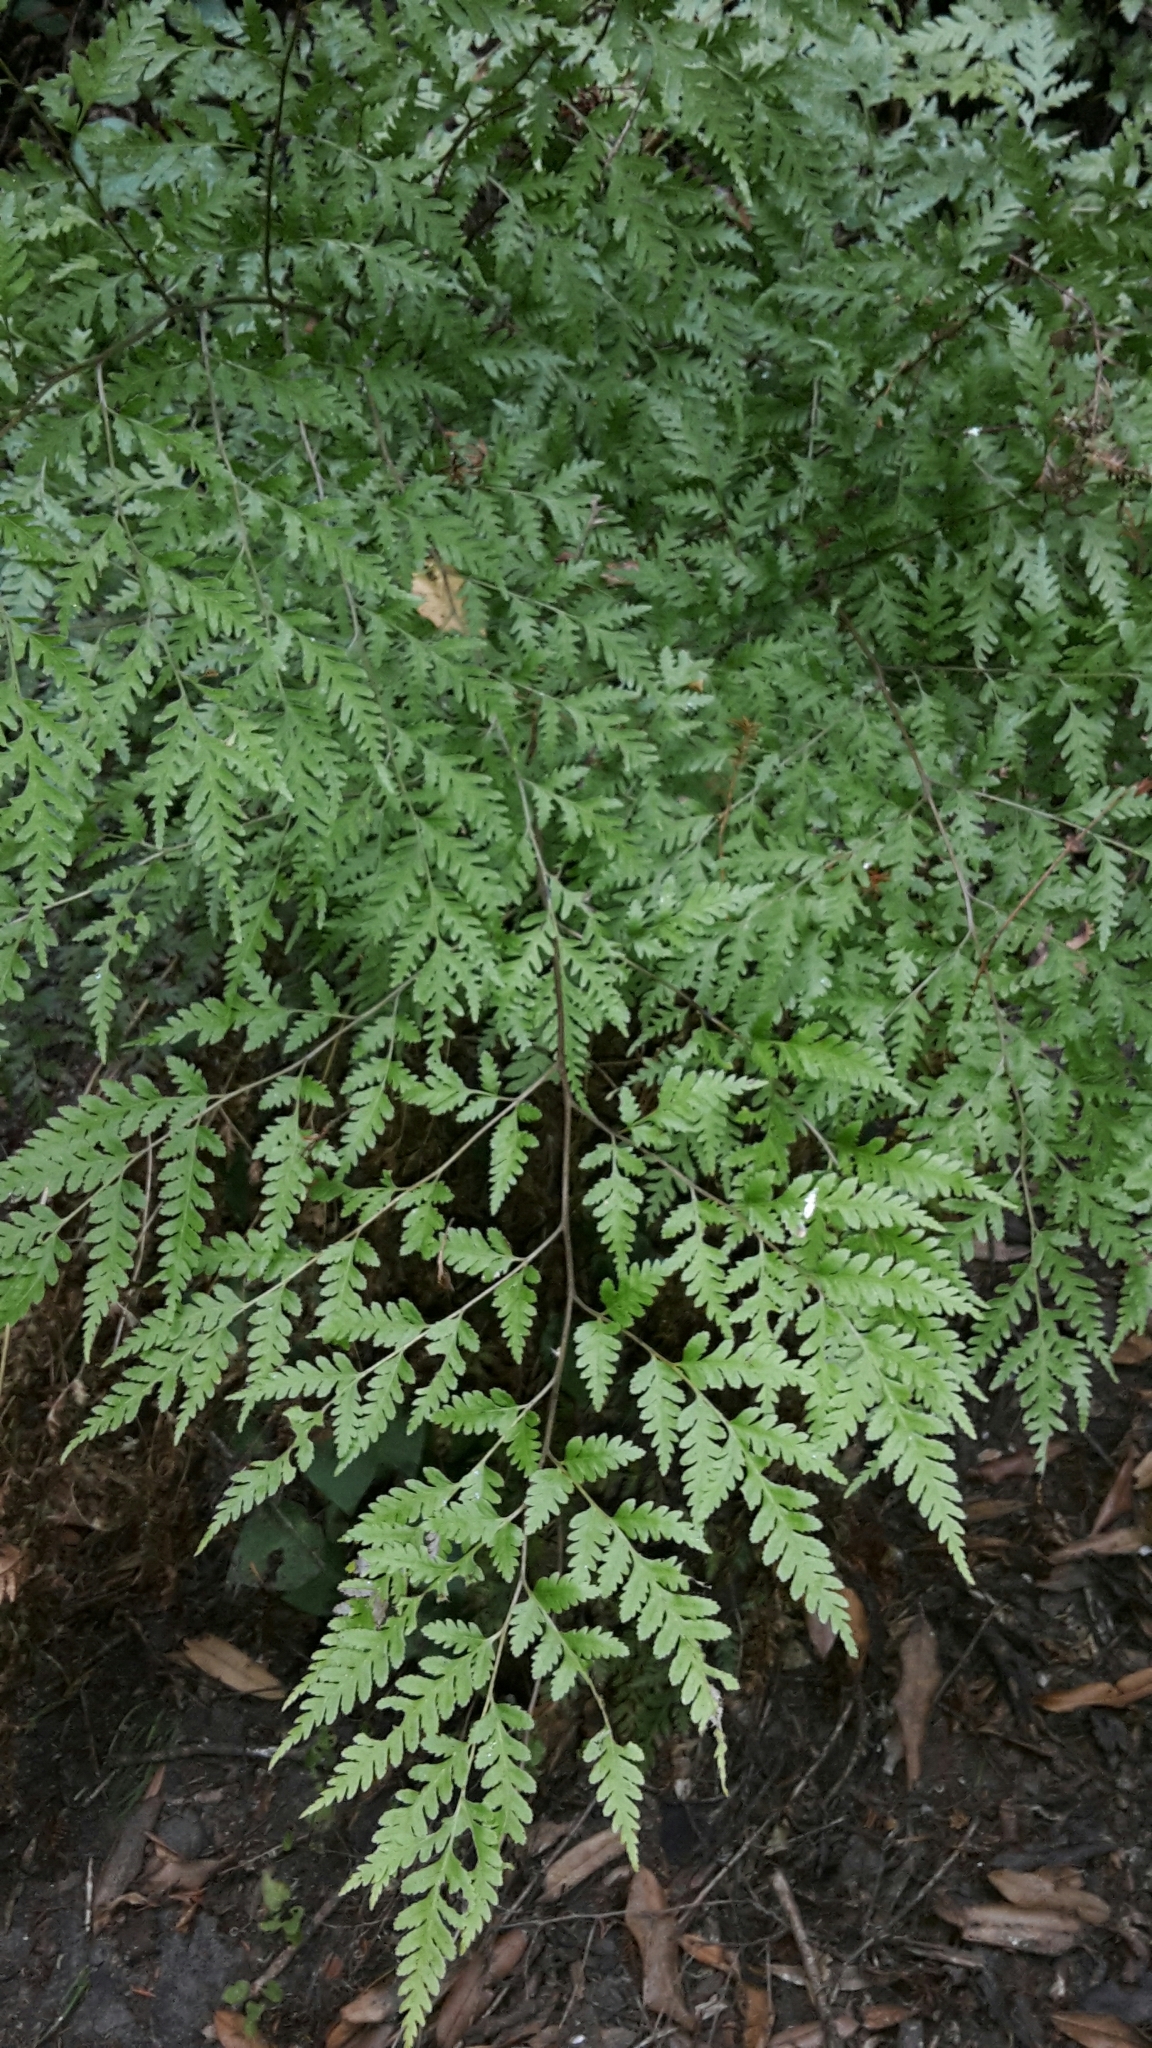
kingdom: Plantae
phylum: Tracheophyta
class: Polypodiopsida
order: Polypodiales
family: Pteridaceae
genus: Pteris
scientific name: Pteris macilenta
